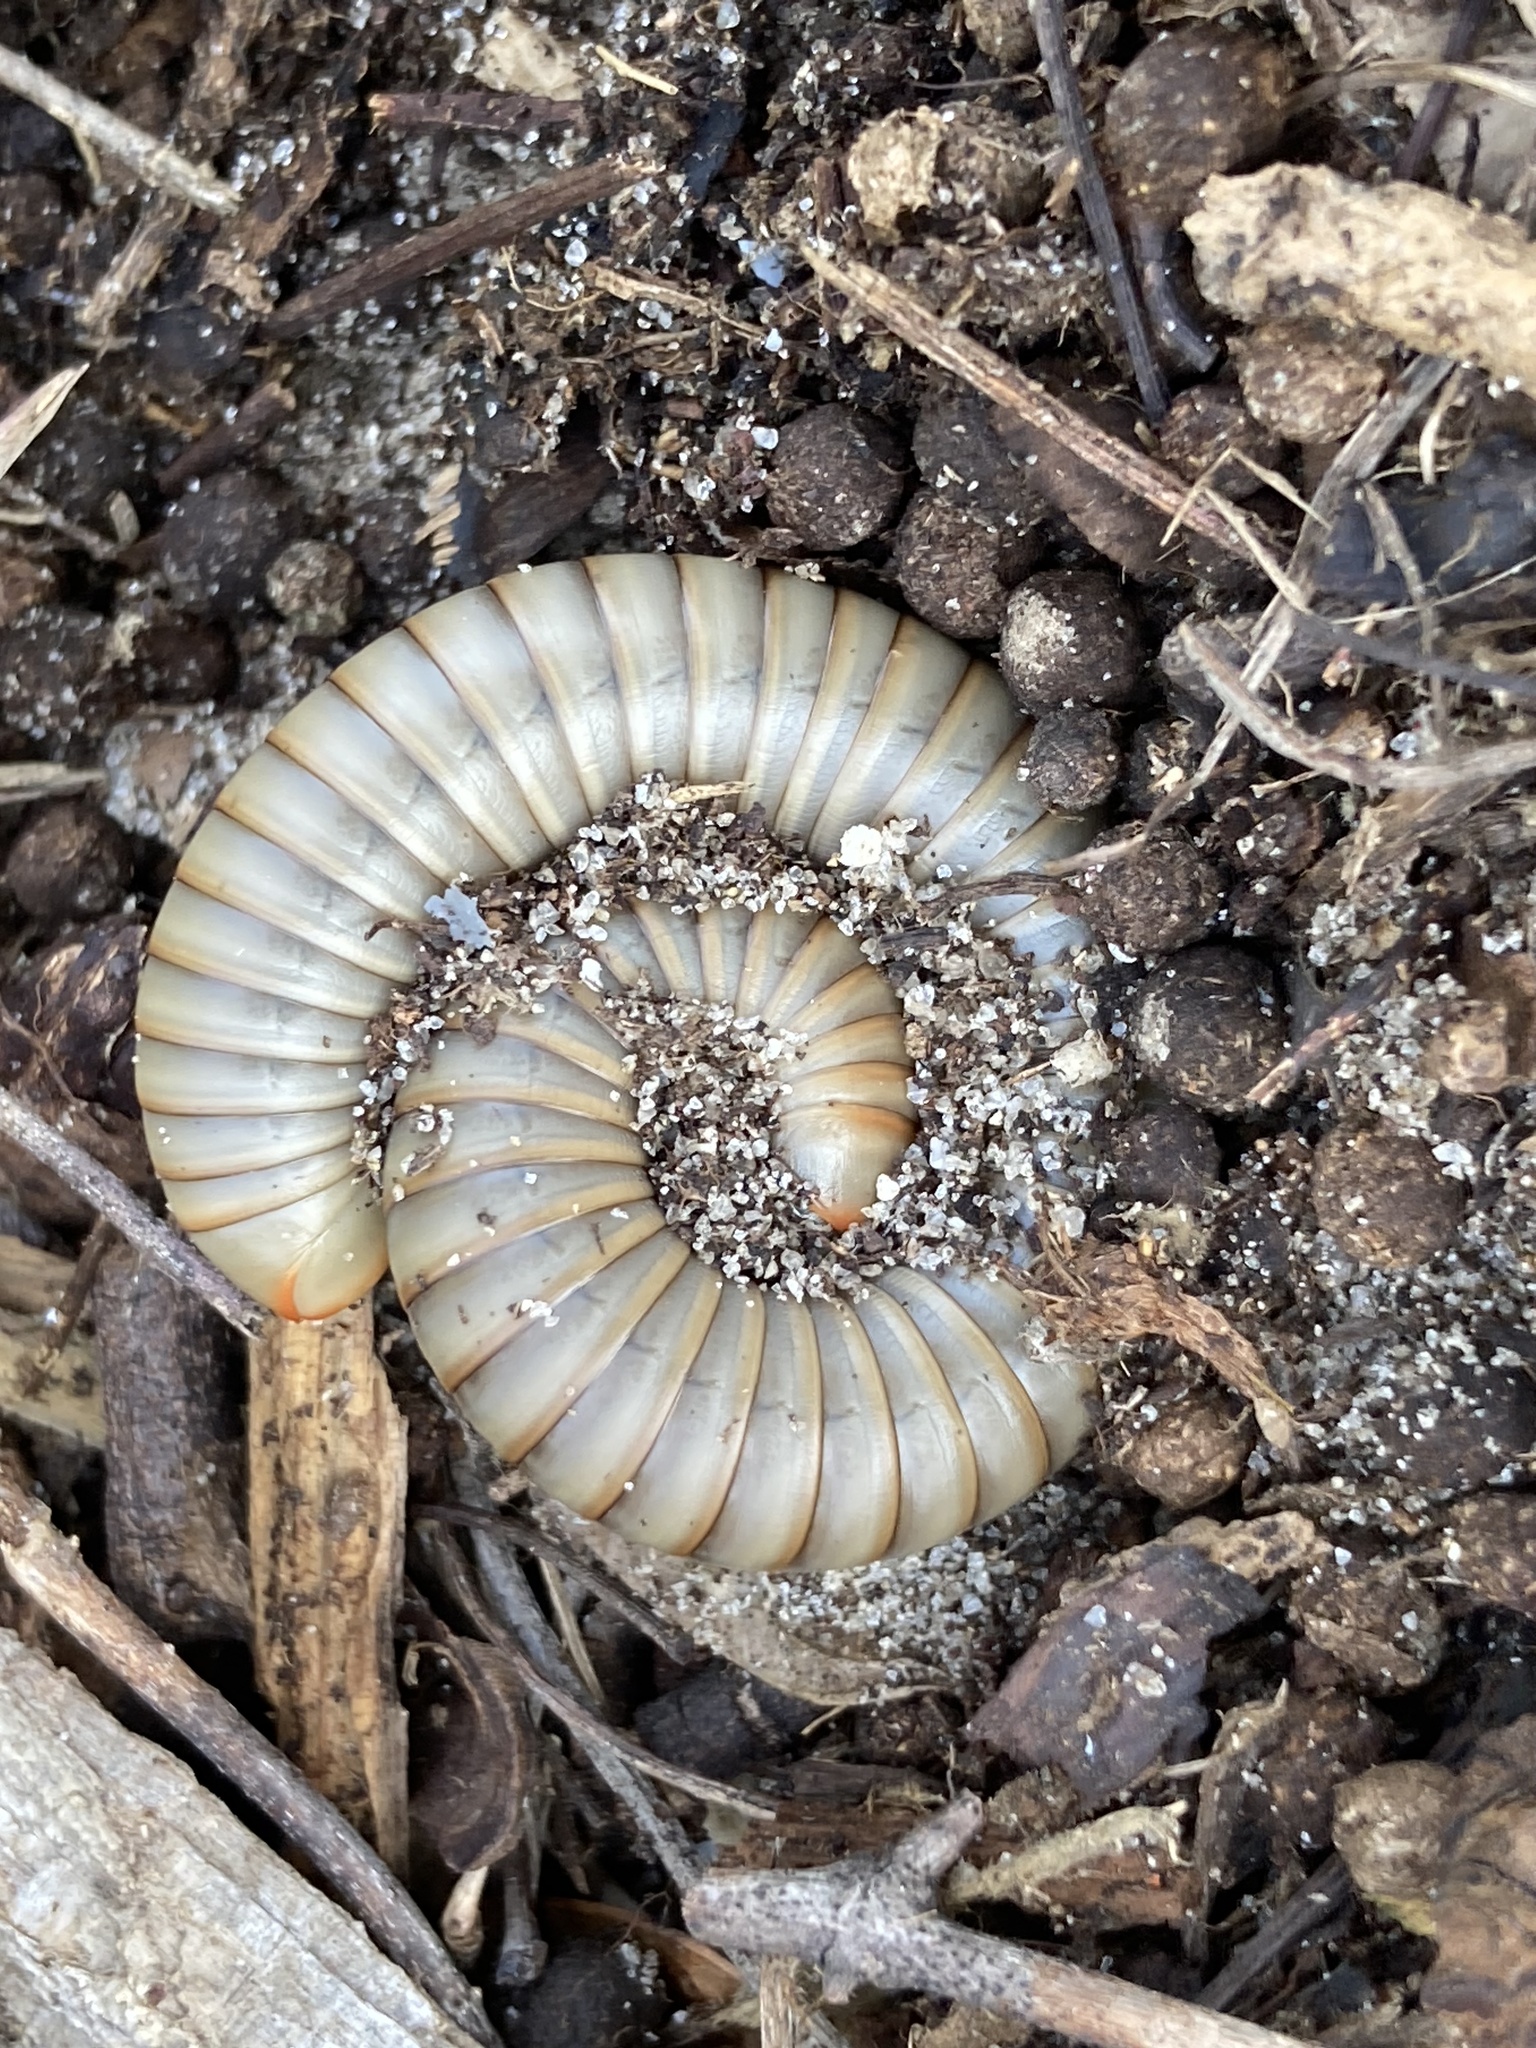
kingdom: Animalia
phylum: Arthropoda
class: Diplopoda
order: Spirobolida
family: Spirobolidae
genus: Narceus
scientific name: Narceus gordanus
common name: Grayish-green millipede
